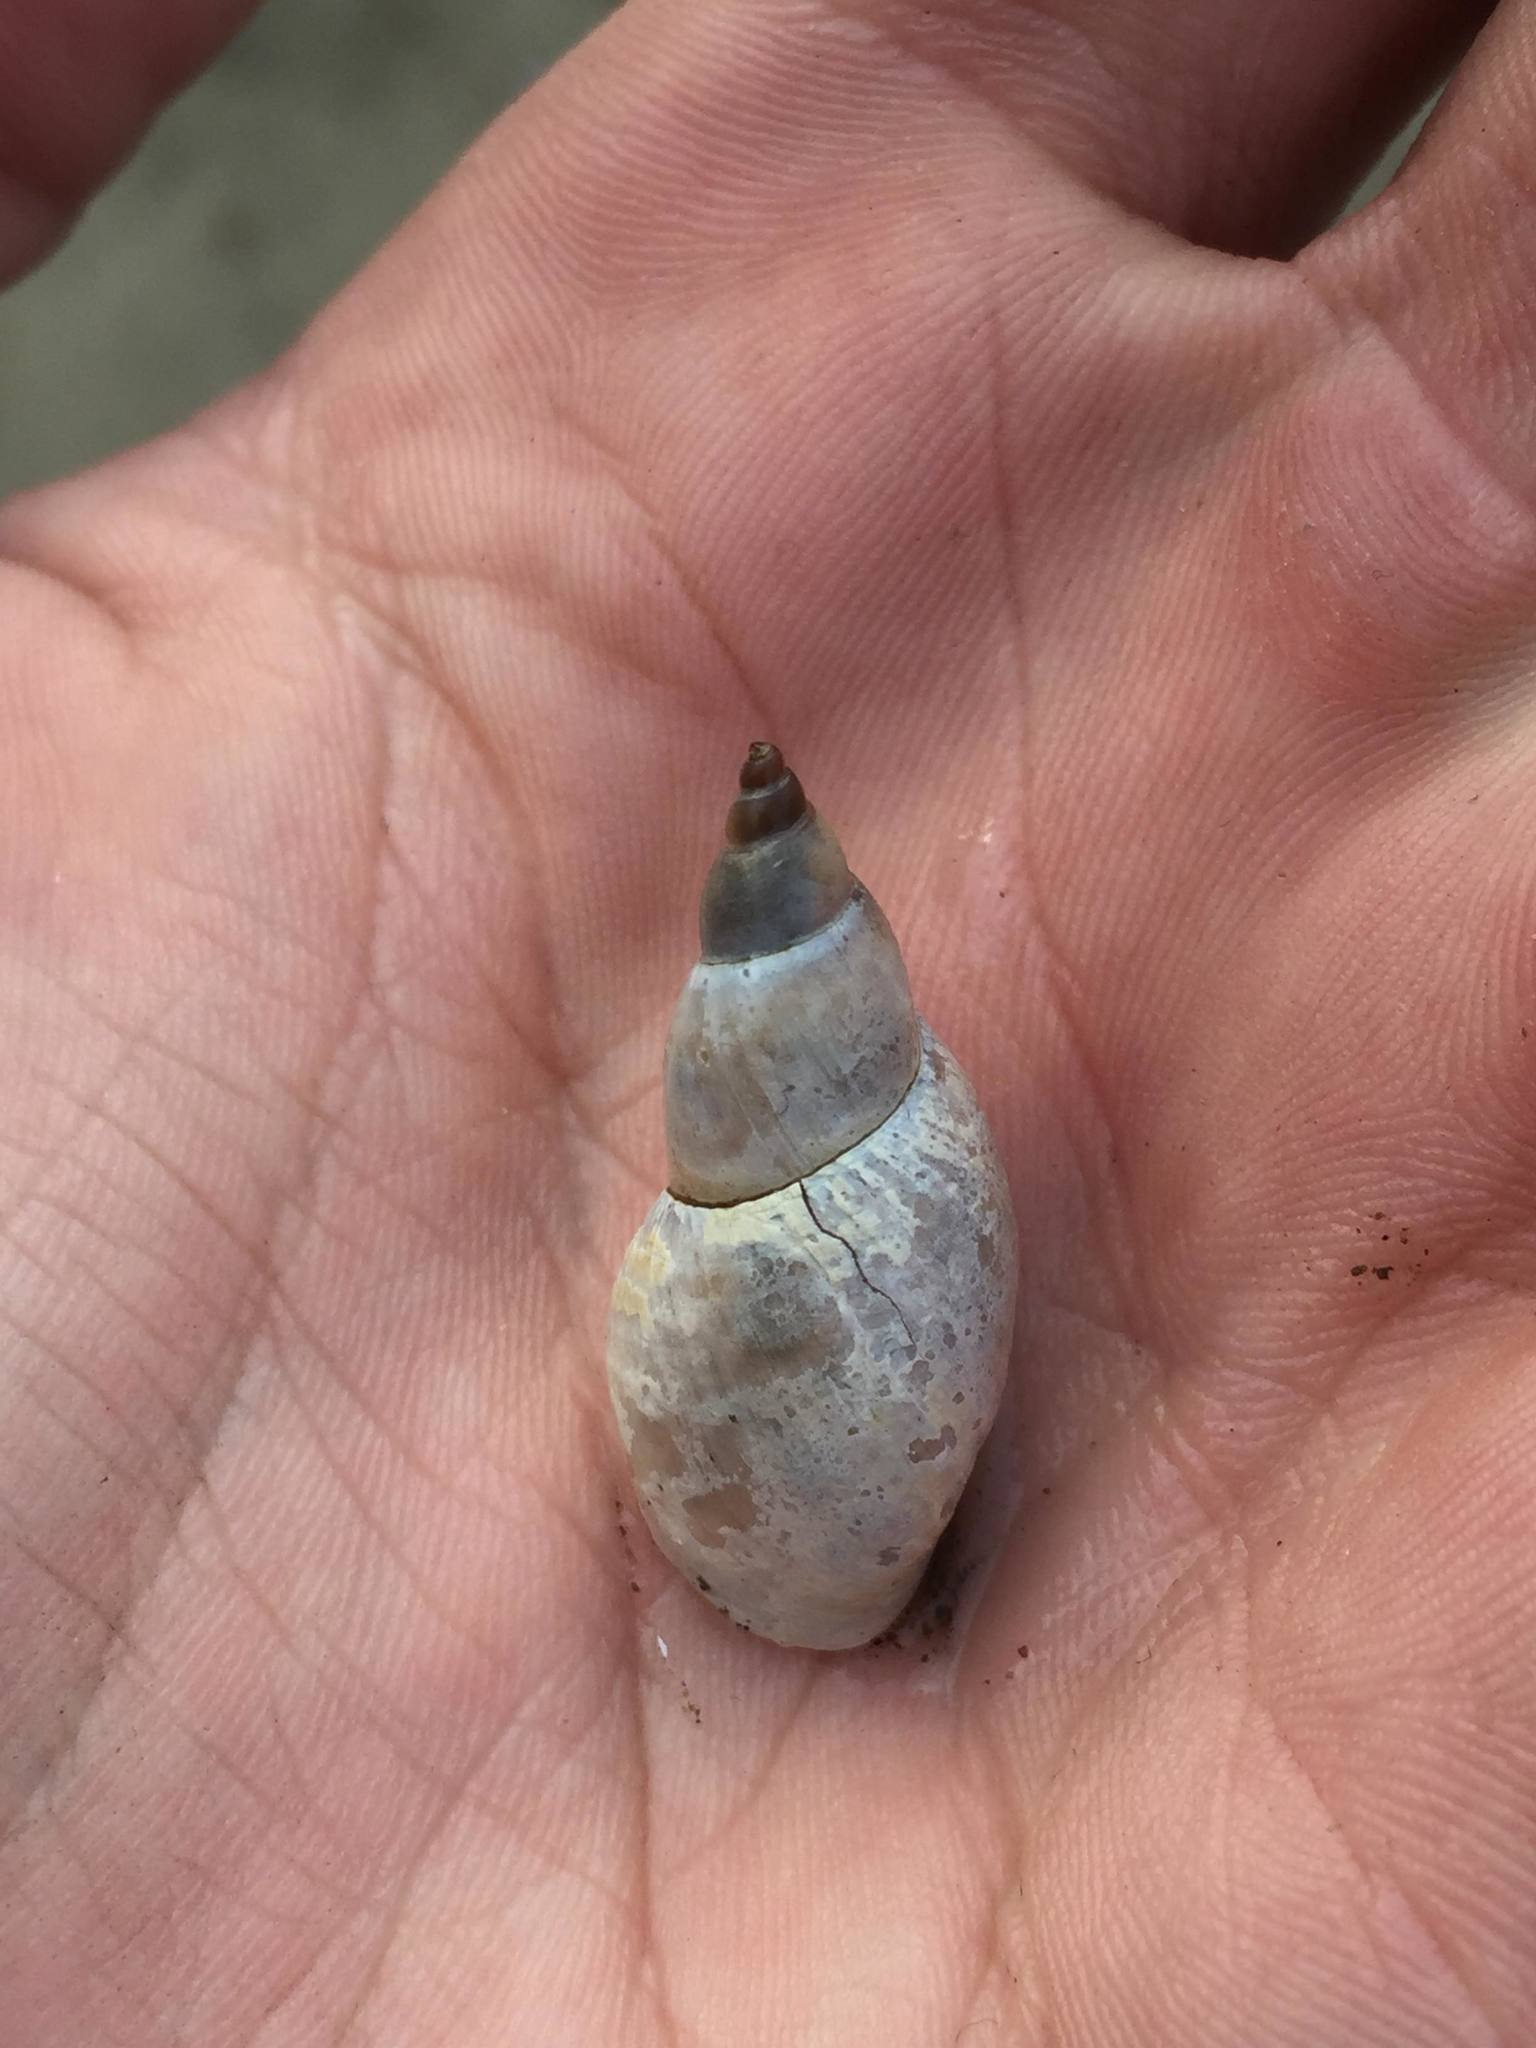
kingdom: Animalia
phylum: Mollusca
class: Gastropoda
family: Lymnaeidae
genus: Lymnaea
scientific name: Lymnaea stagnalis
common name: Great pond snail
